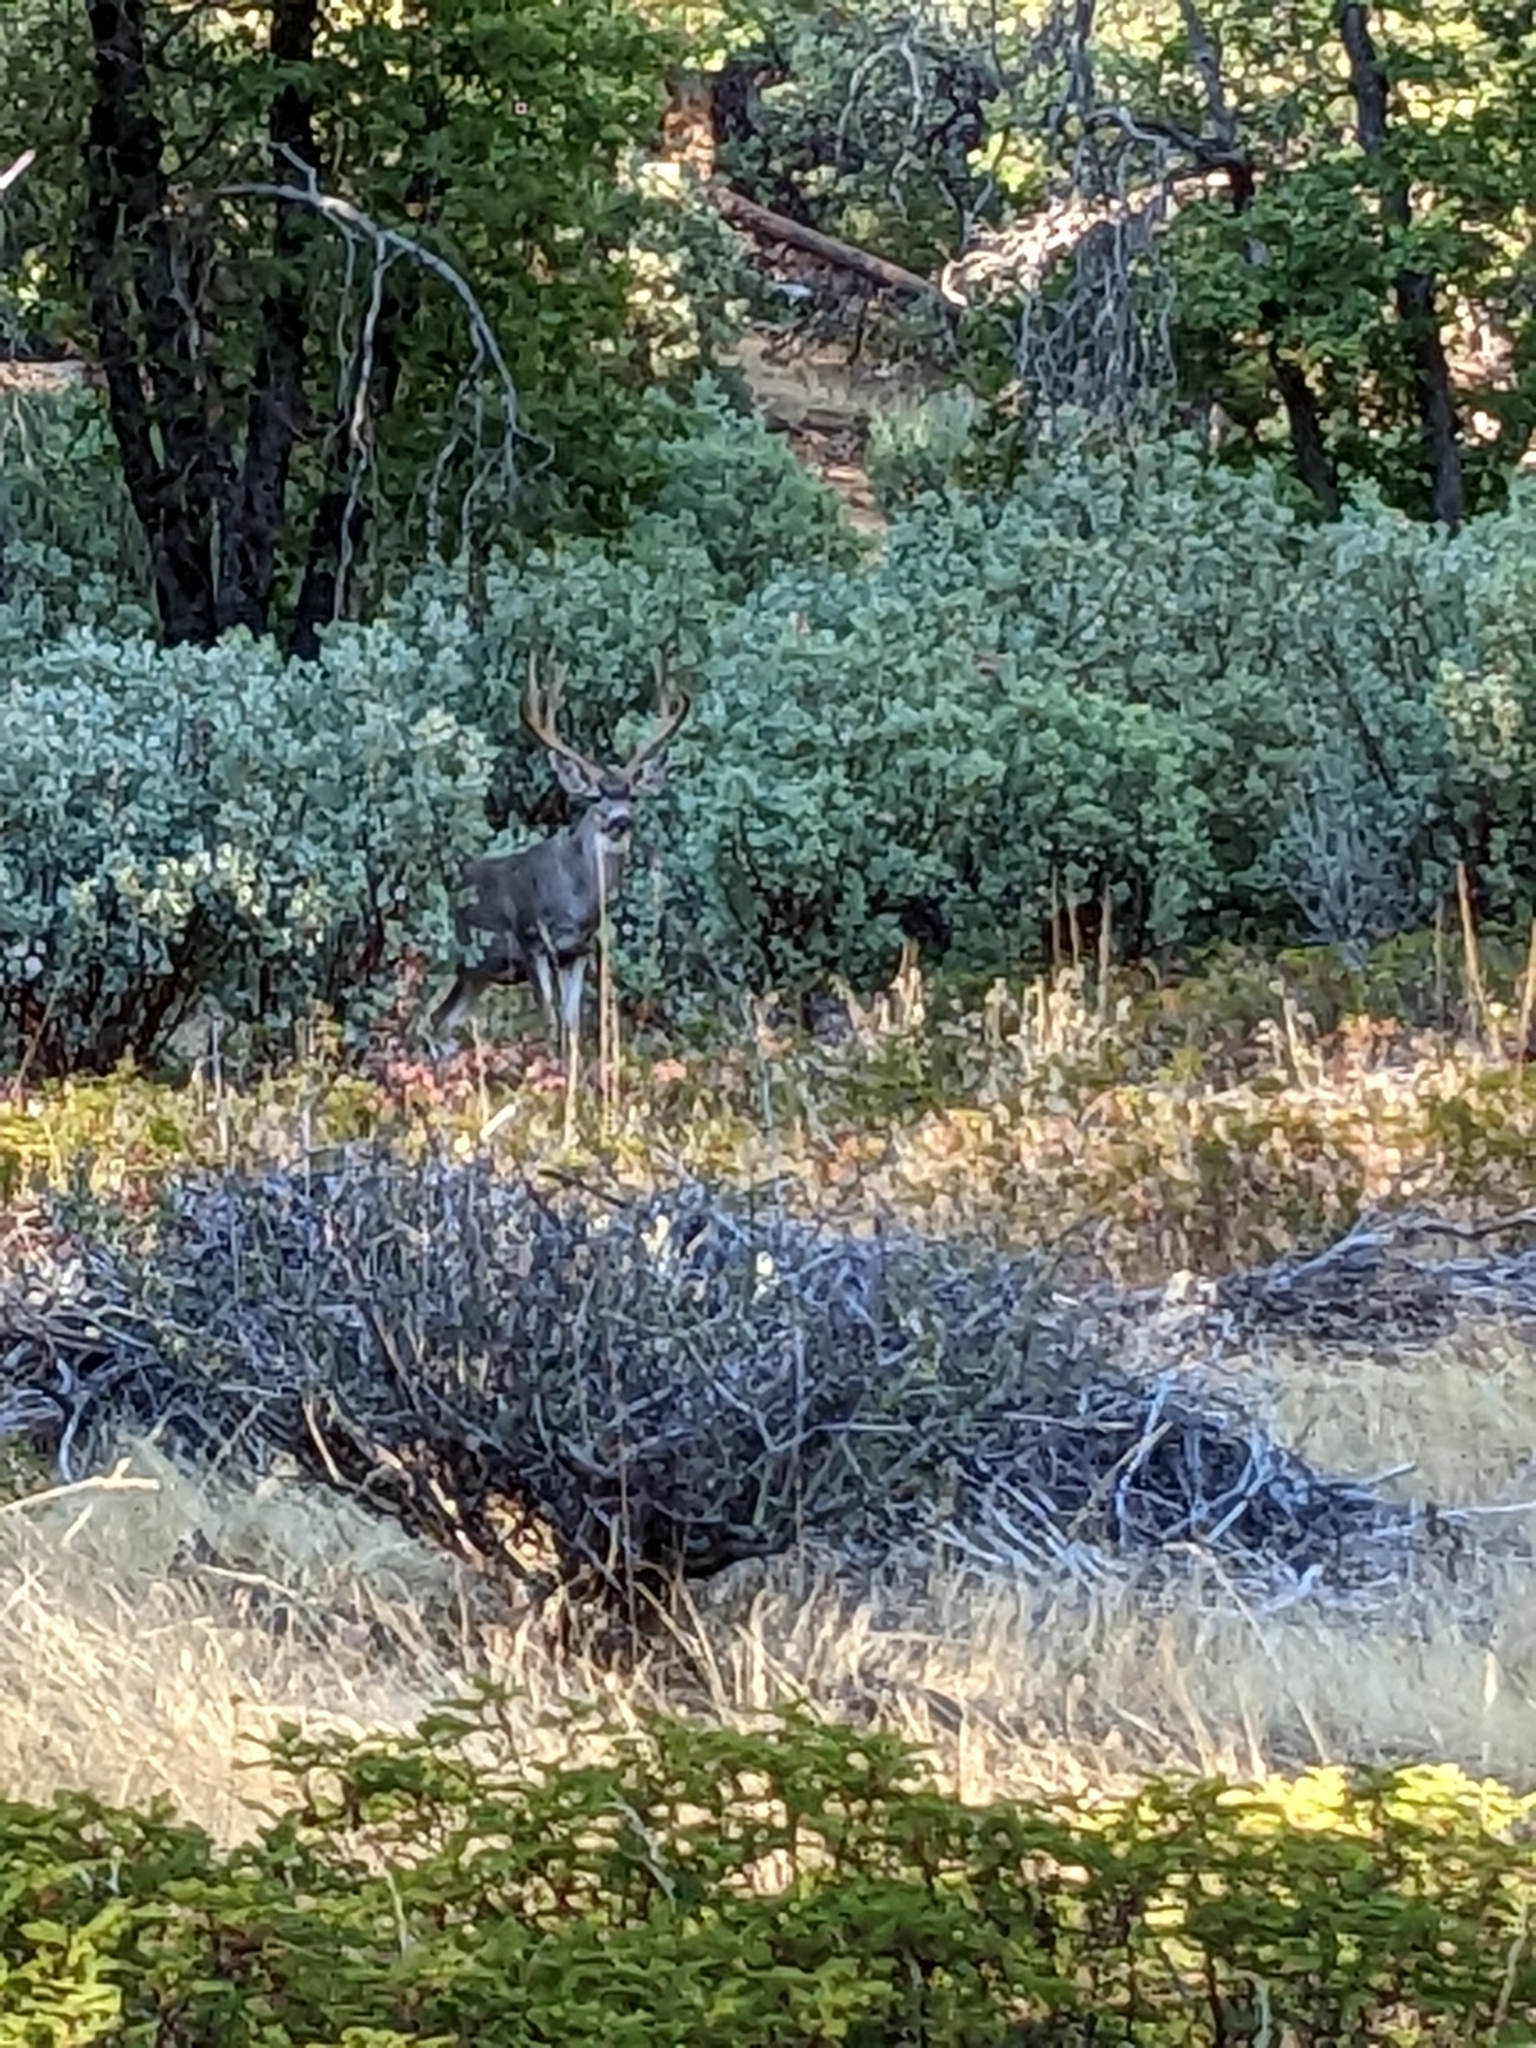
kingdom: Animalia
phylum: Chordata
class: Mammalia
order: Artiodactyla
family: Cervidae
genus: Odocoileus
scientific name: Odocoileus hemionus
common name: Mule deer
